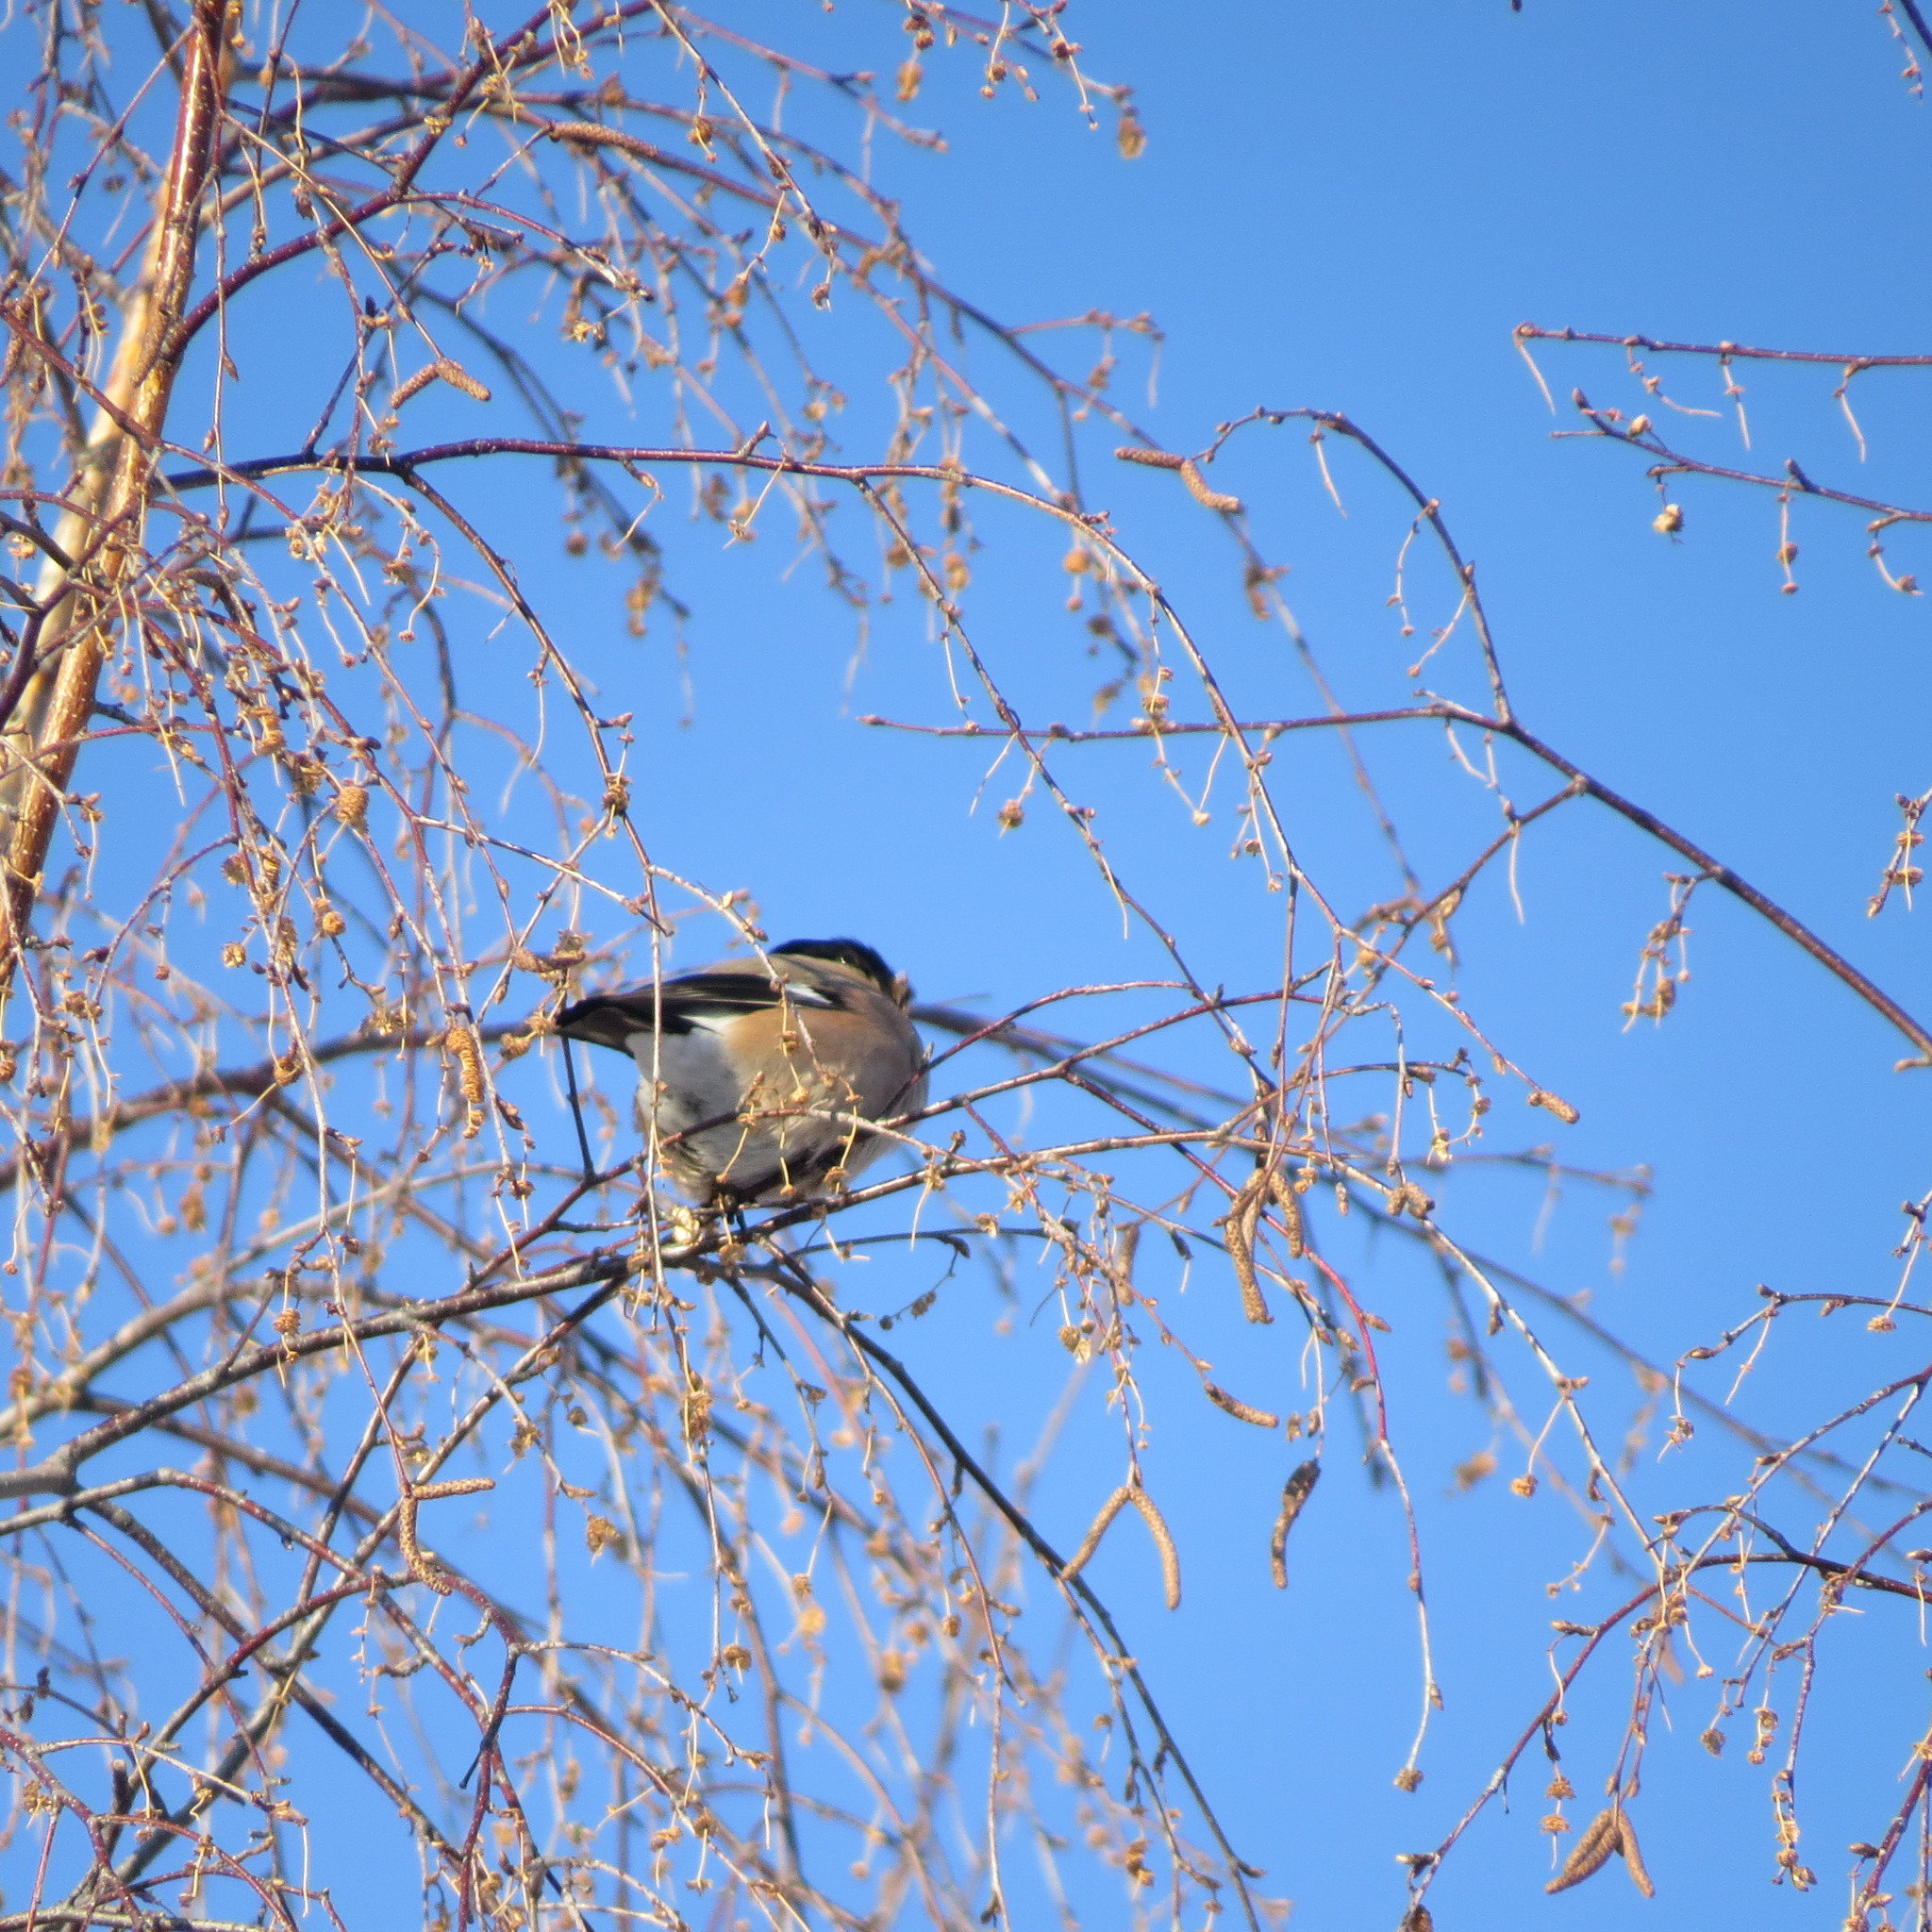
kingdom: Animalia
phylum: Chordata
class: Aves
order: Passeriformes
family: Fringillidae
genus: Pyrrhula
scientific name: Pyrrhula pyrrhula
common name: Eurasian bullfinch
